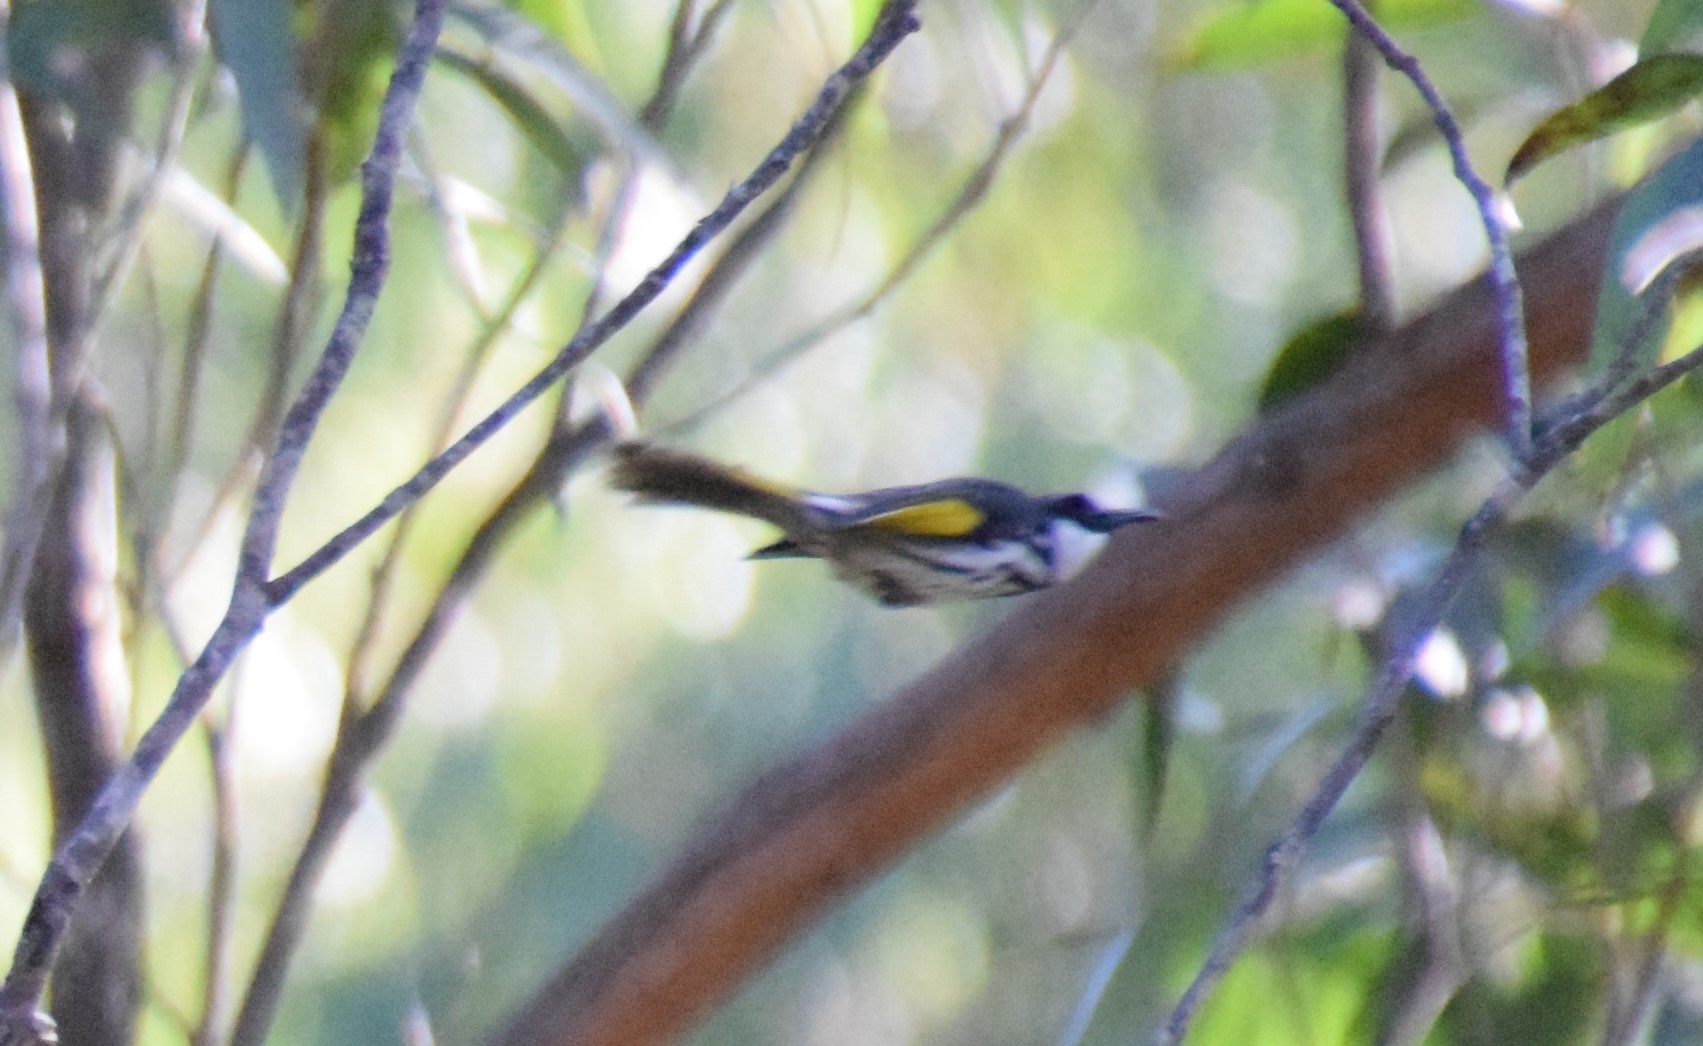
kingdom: Animalia
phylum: Chordata
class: Aves
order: Passeriformes
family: Meliphagidae
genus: Phylidonyris
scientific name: Phylidonyris niger
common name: White-cheeked honeyeater
